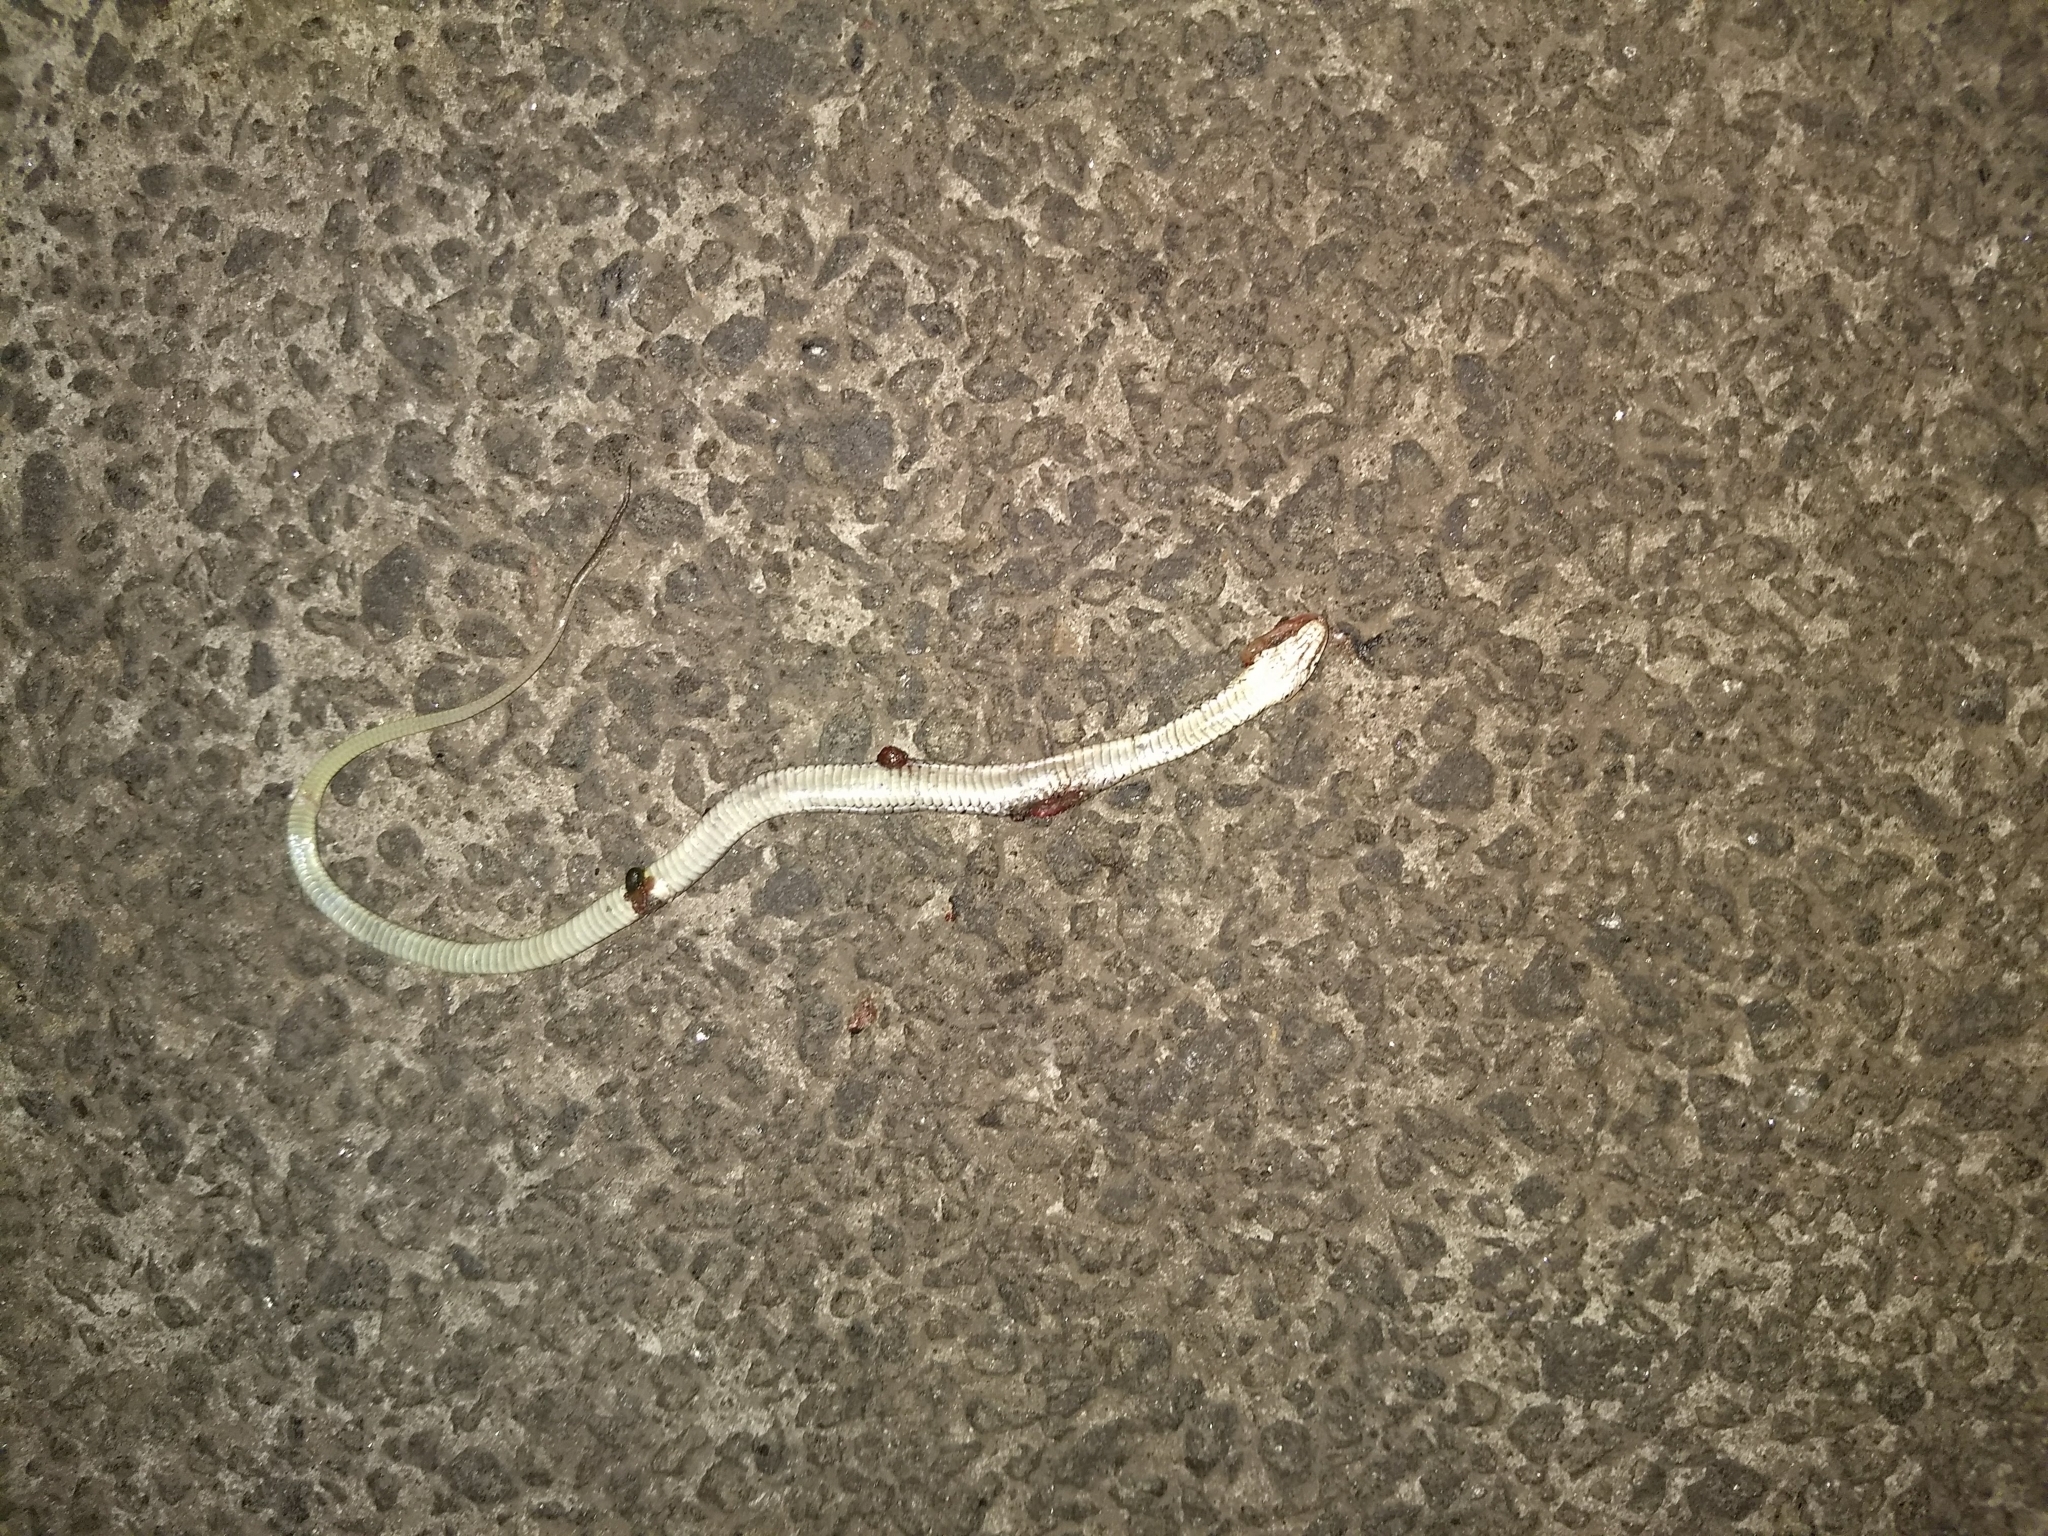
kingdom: Animalia
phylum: Chordata
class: Squamata
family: Colubridae
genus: Fowlea
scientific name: Fowlea piscator
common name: Asiatic water snake
